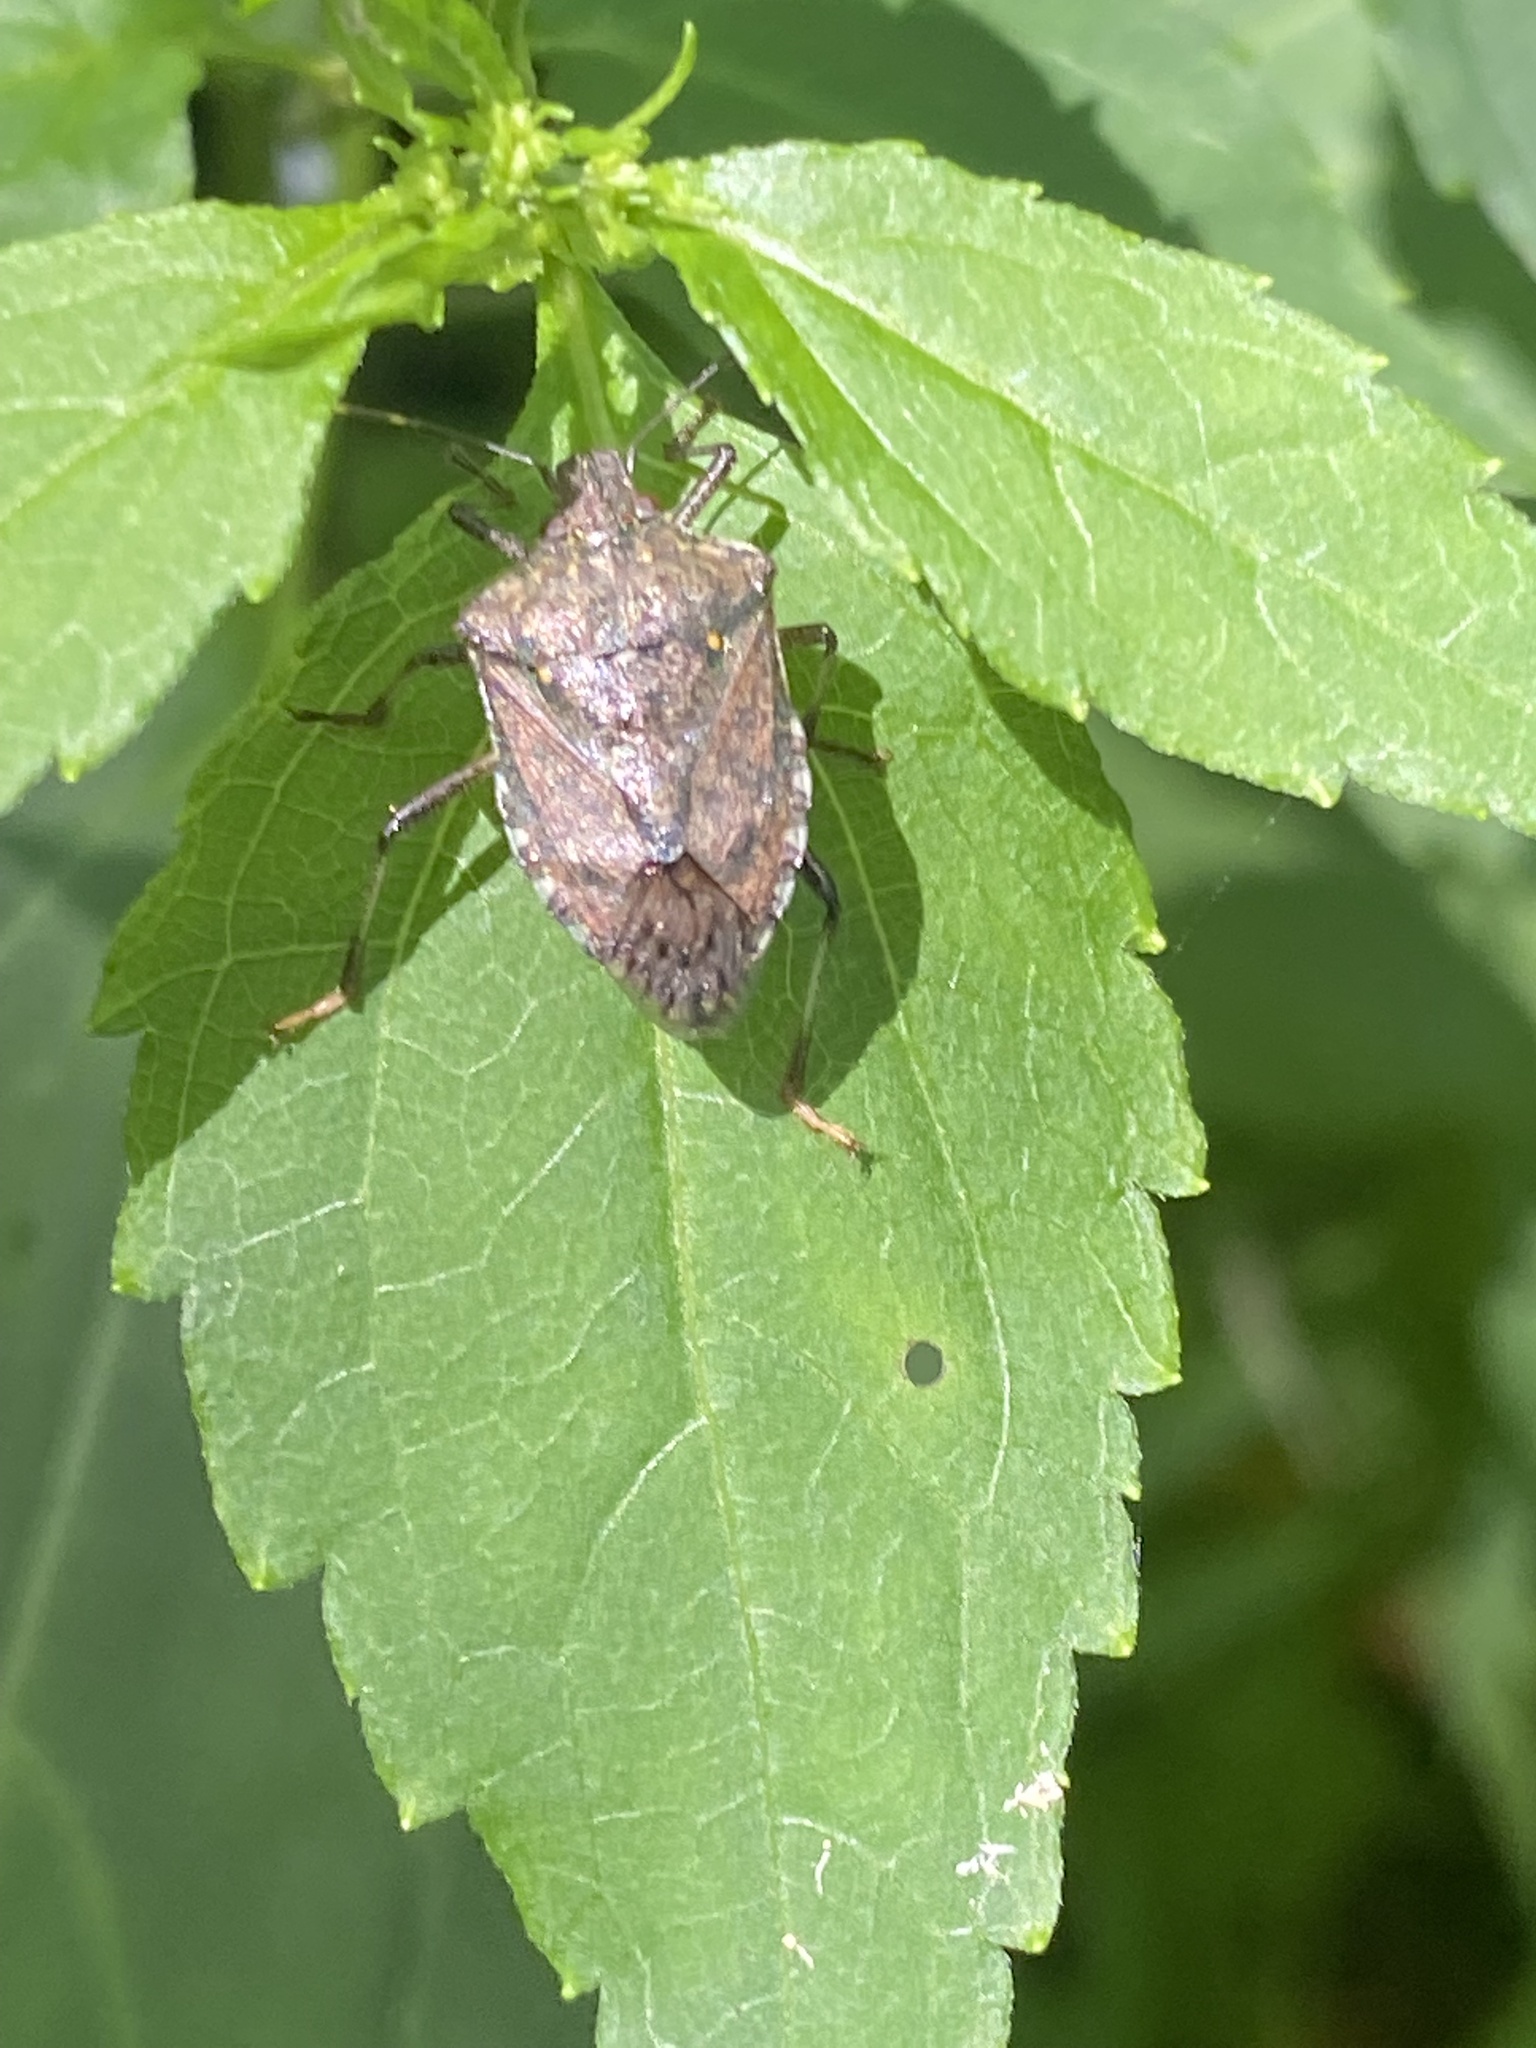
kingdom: Animalia
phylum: Arthropoda
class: Insecta
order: Hemiptera
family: Pentatomidae
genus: Halyomorpha
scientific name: Halyomorpha halys
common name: Brown marmorated stink bug
